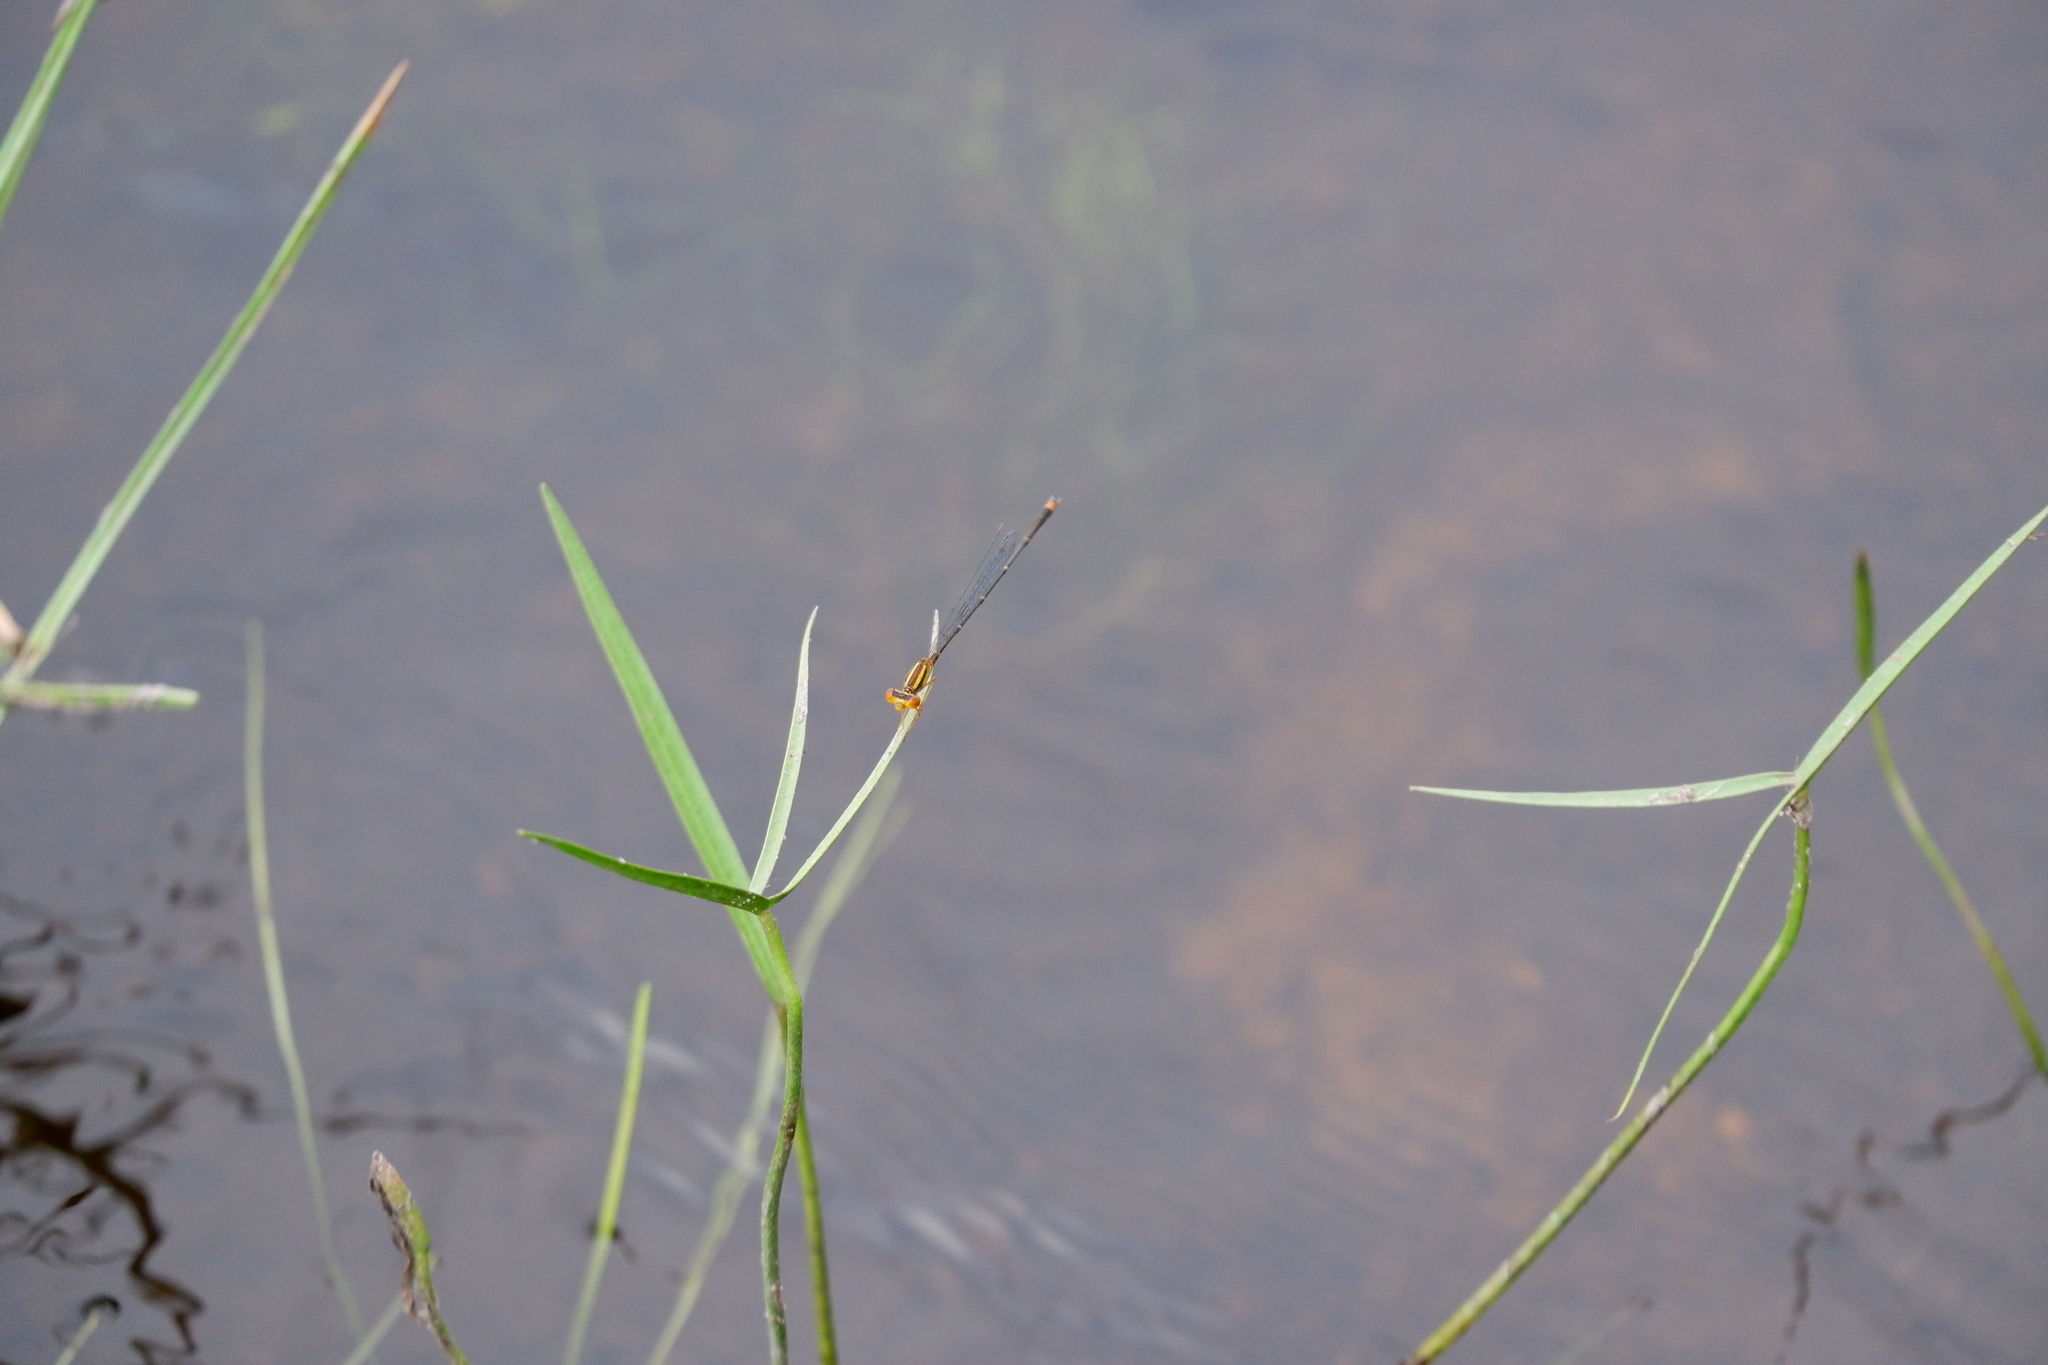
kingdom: Animalia
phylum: Arthropoda
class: Insecta
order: Odonata
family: Coenagrionidae
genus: Enallagma
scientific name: Enallagma signatum
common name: Orange bluet
